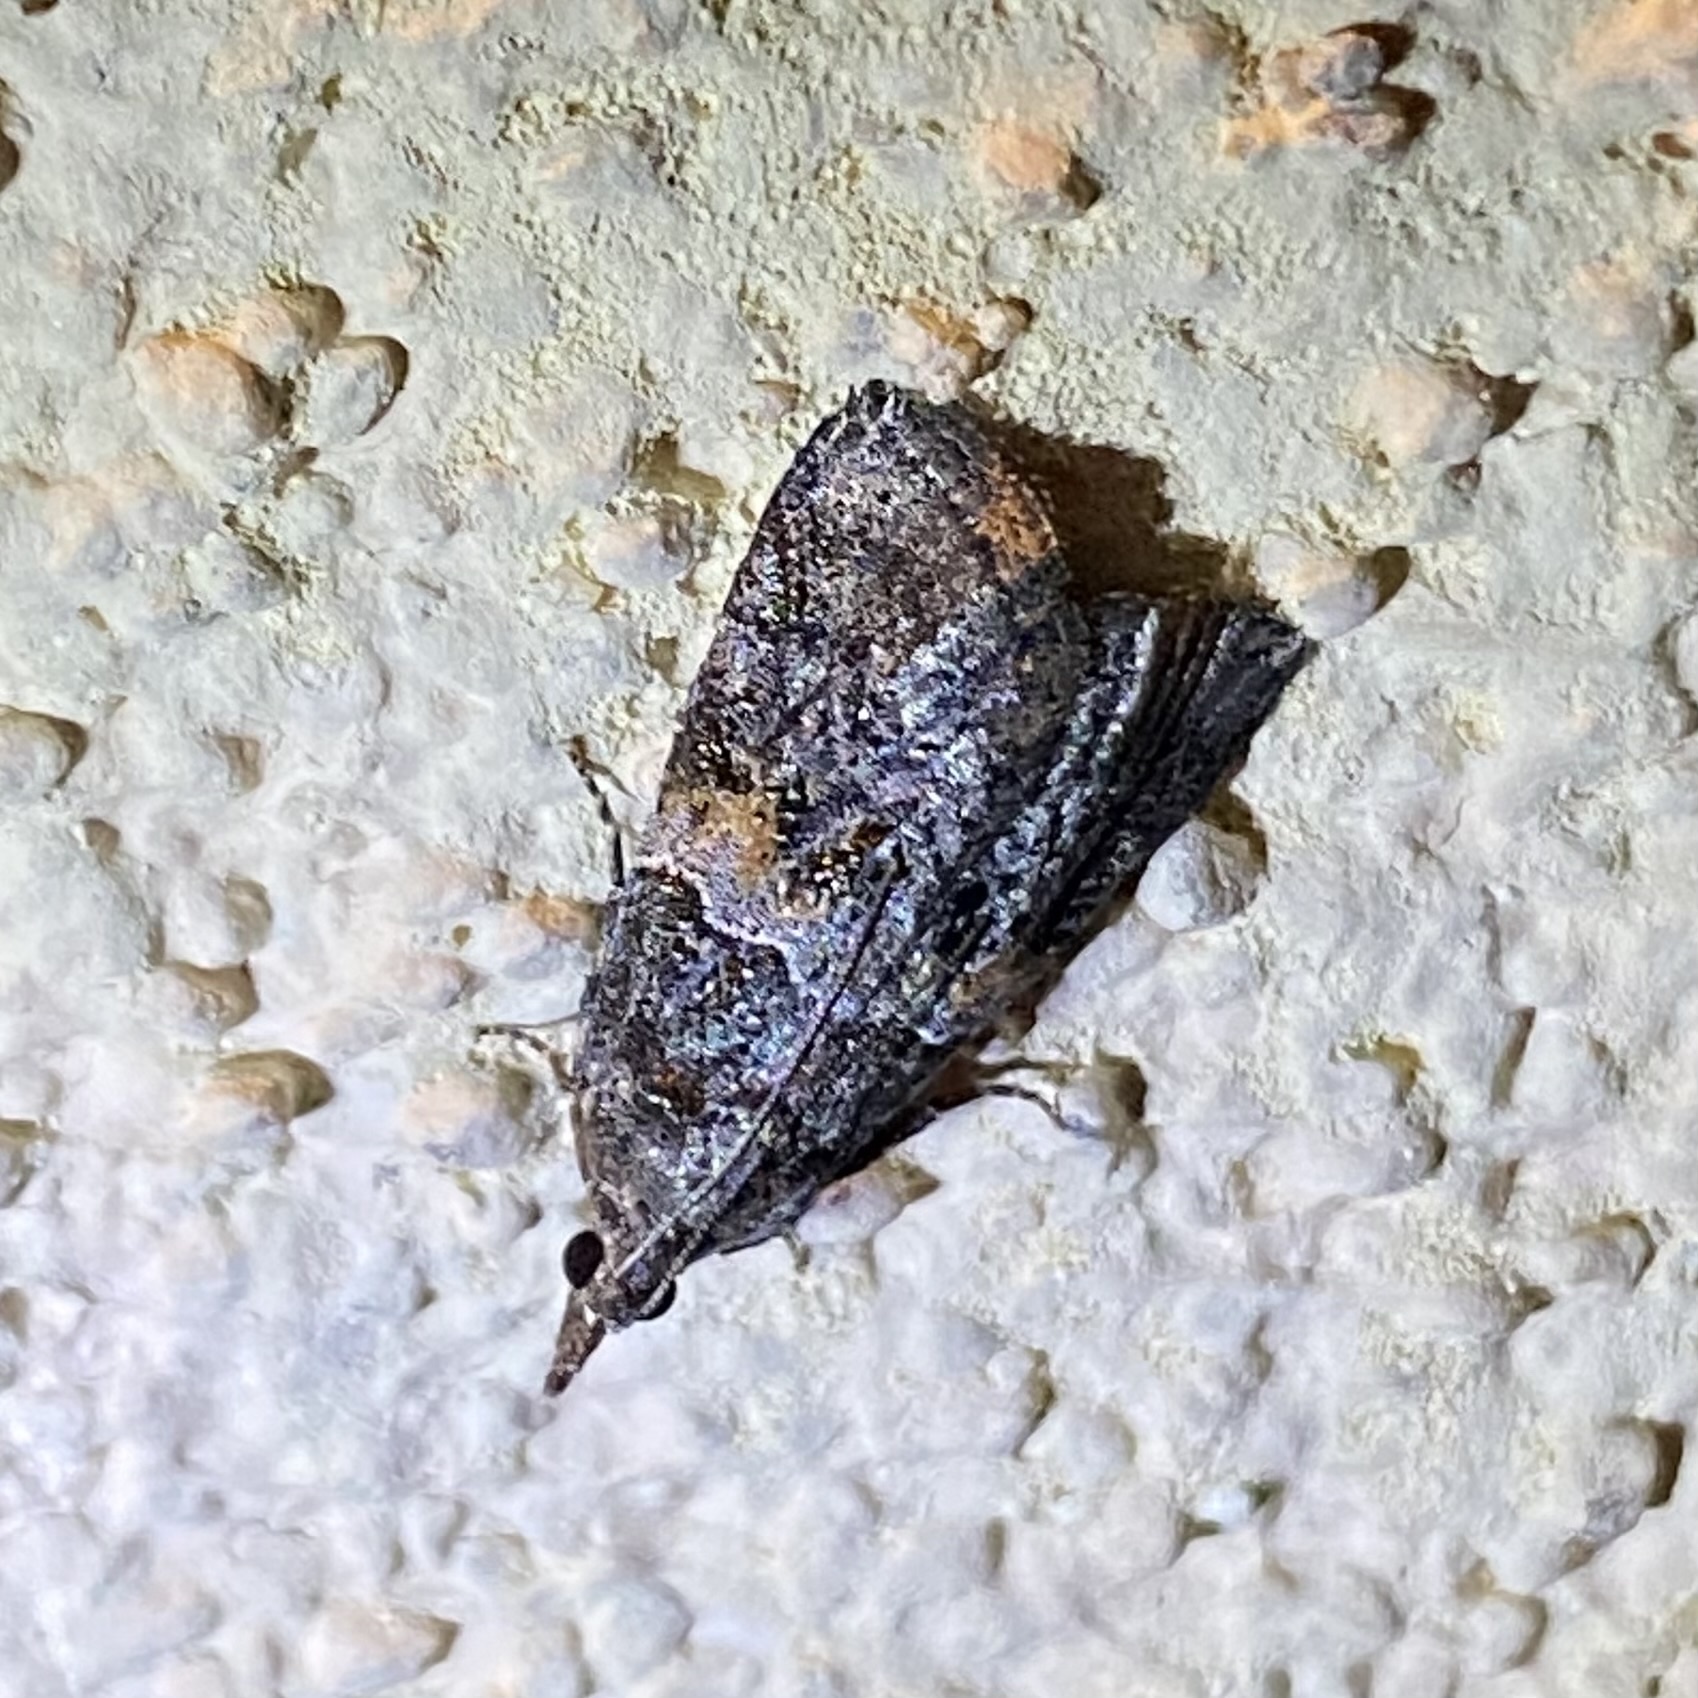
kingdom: Animalia
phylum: Arthropoda
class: Insecta
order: Lepidoptera
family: Pyralidae
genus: Satole
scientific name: Satole ligniperdalis
